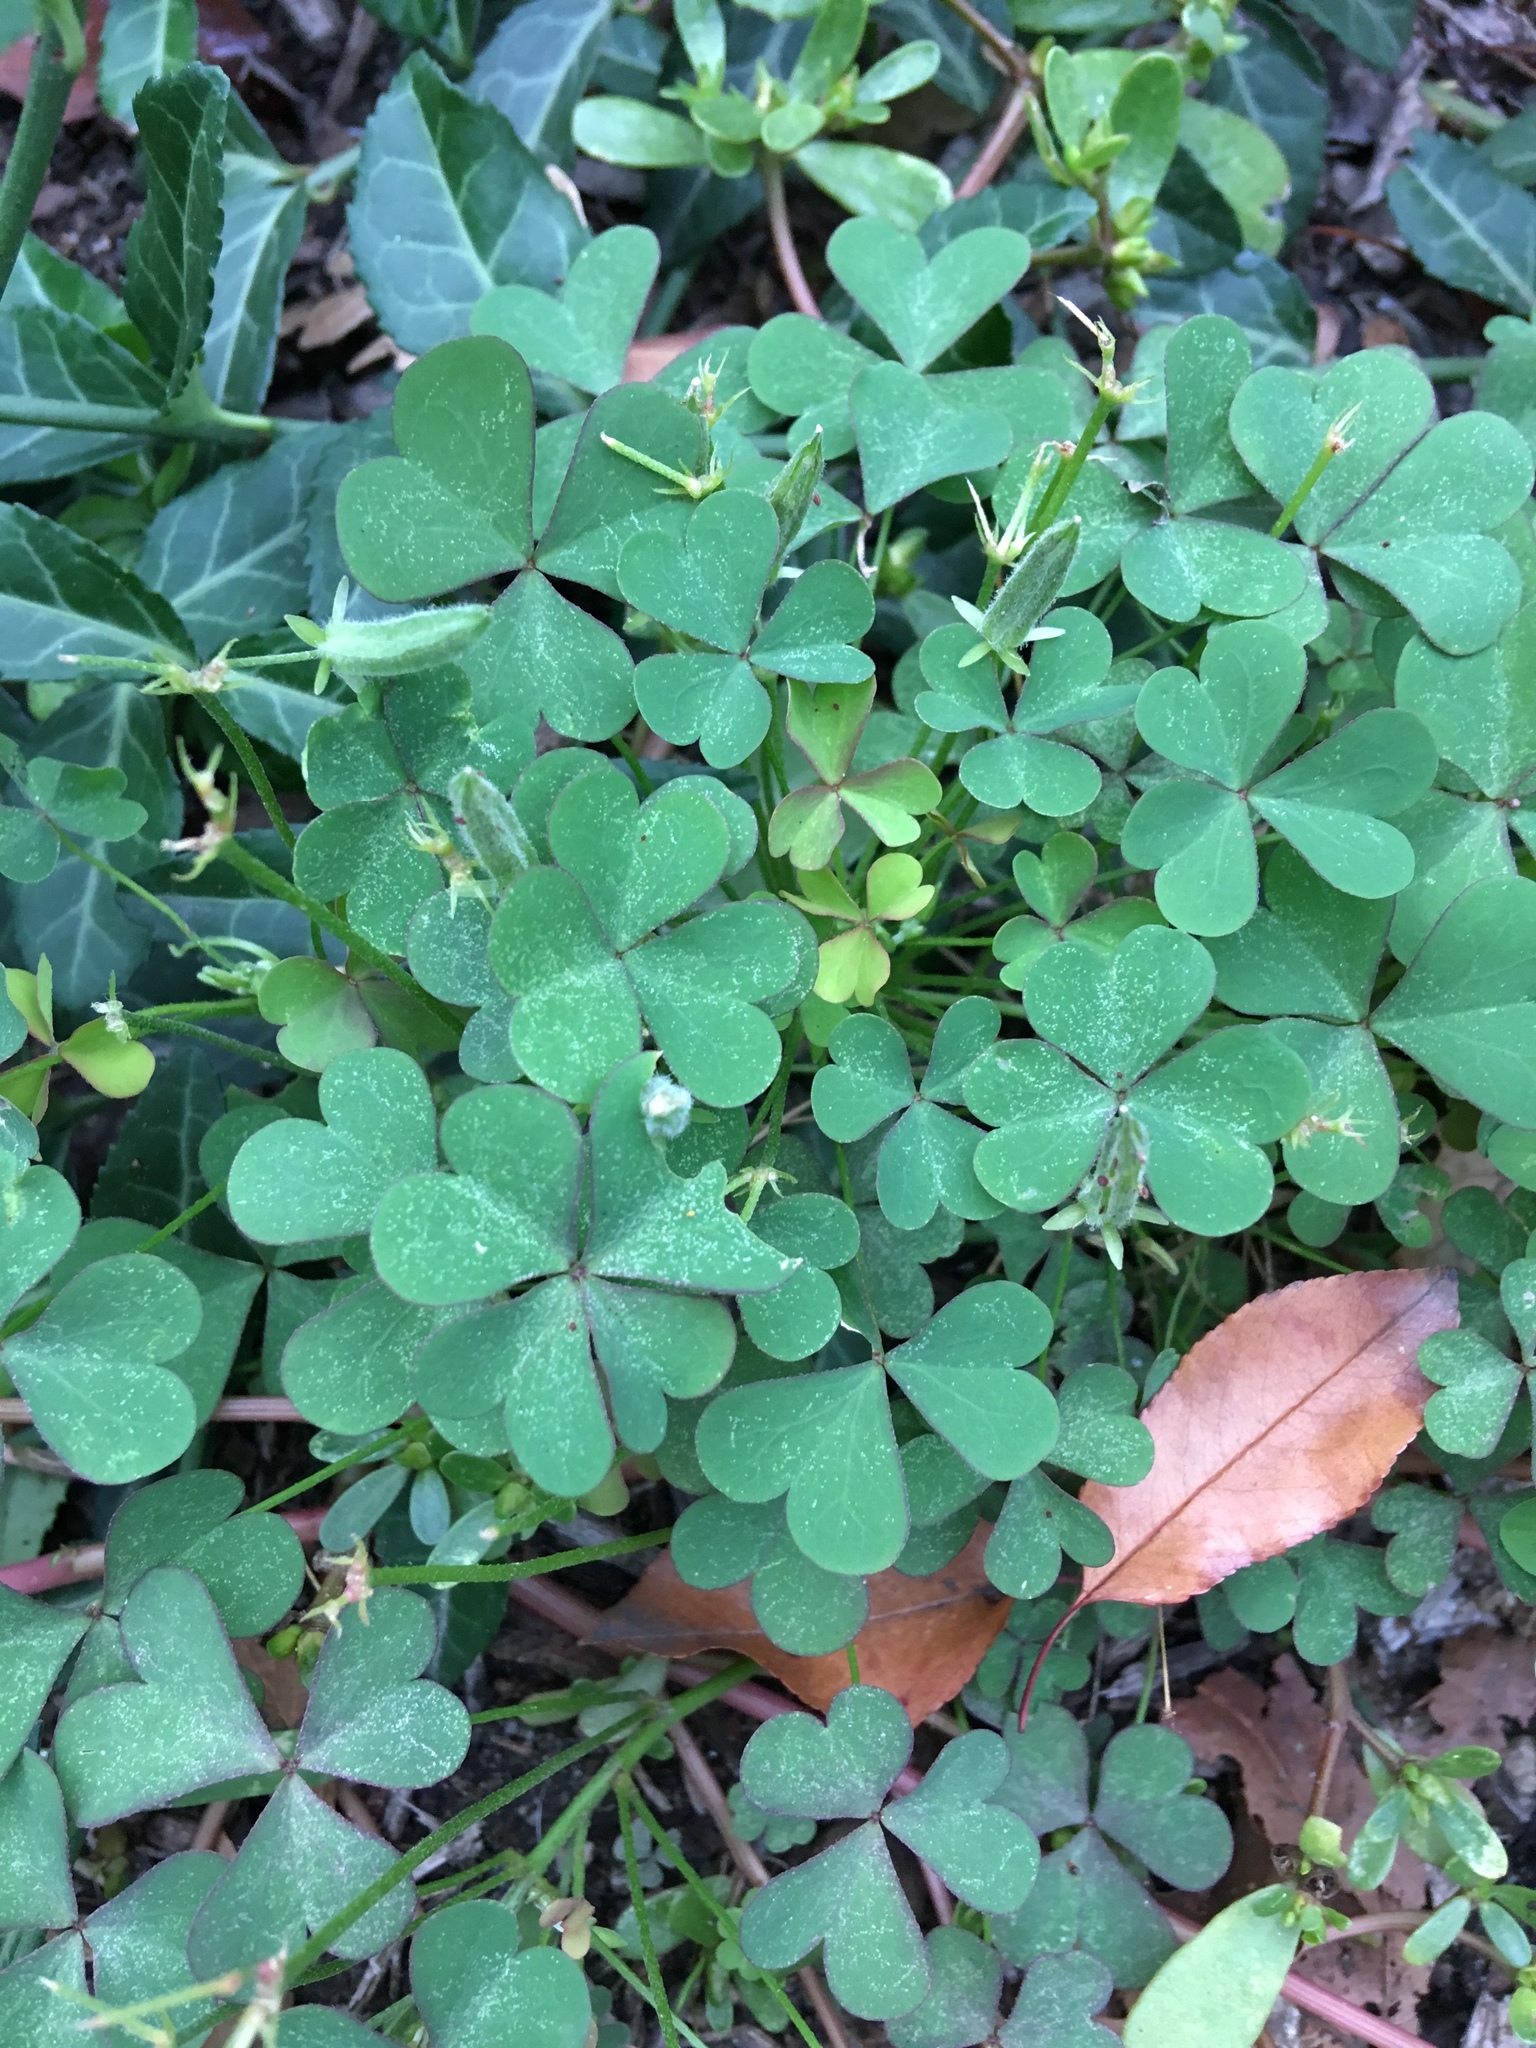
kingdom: Plantae
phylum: Tracheophyta
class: Magnoliopsida
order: Oxalidales
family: Oxalidaceae
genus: Oxalis
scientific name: Oxalis corniculata
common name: Procumbent yellow-sorrel
